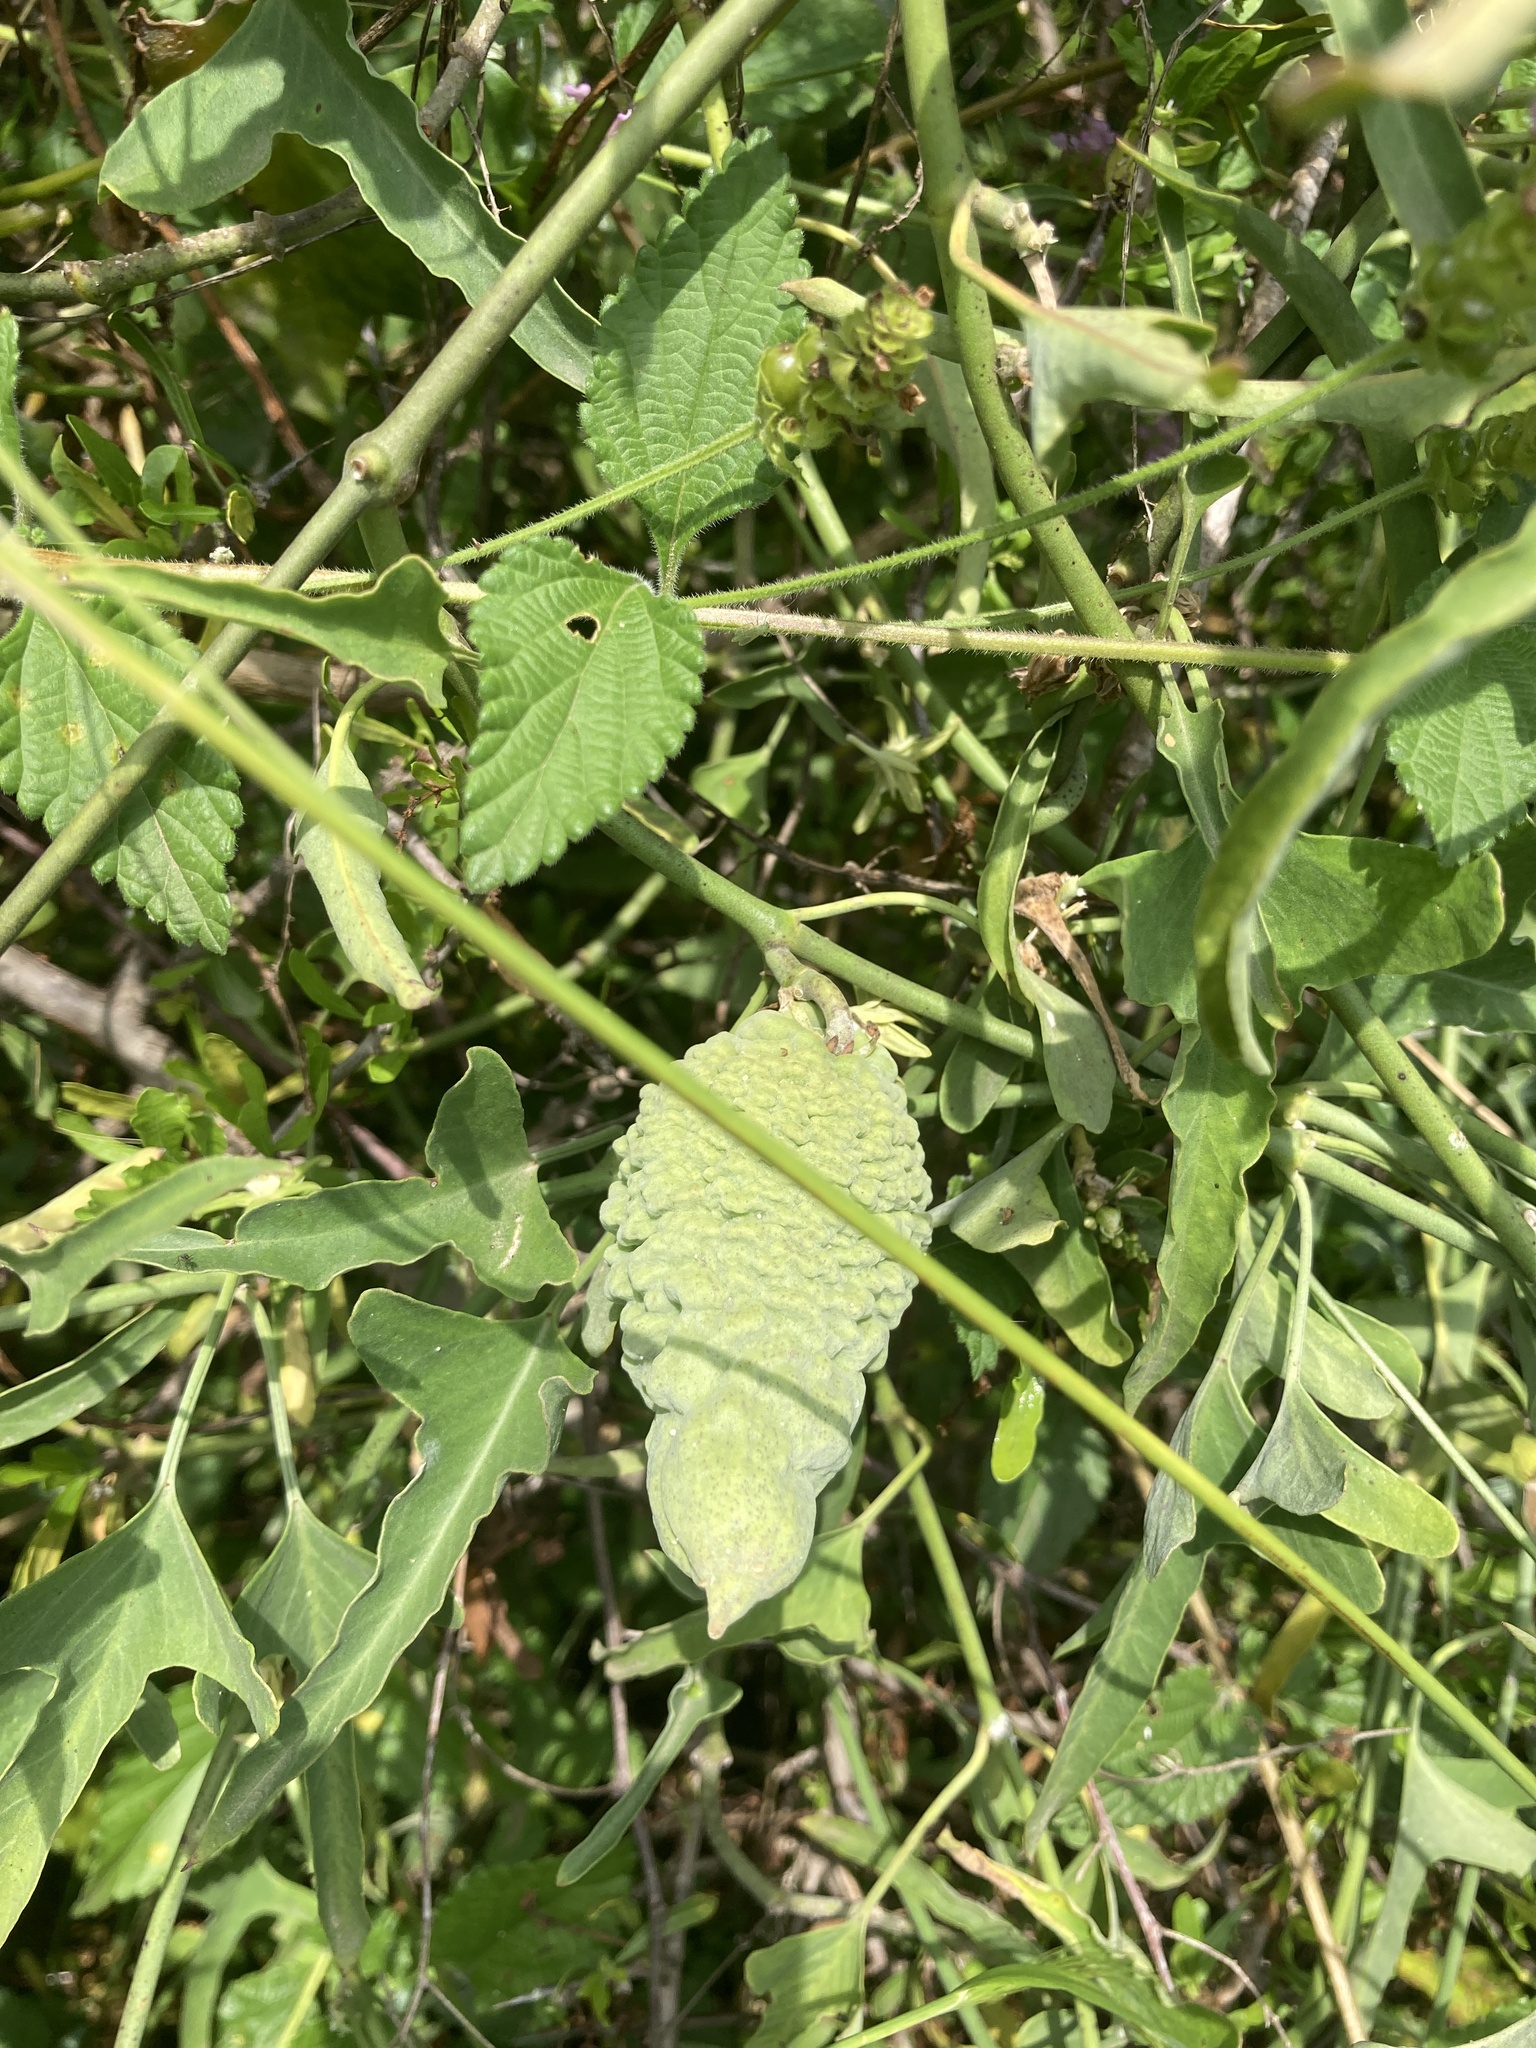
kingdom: Plantae
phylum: Tracheophyta
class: Magnoliopsida
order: Gentianales
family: Apocynaceae
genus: Araujia
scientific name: Araujia brachystephana
